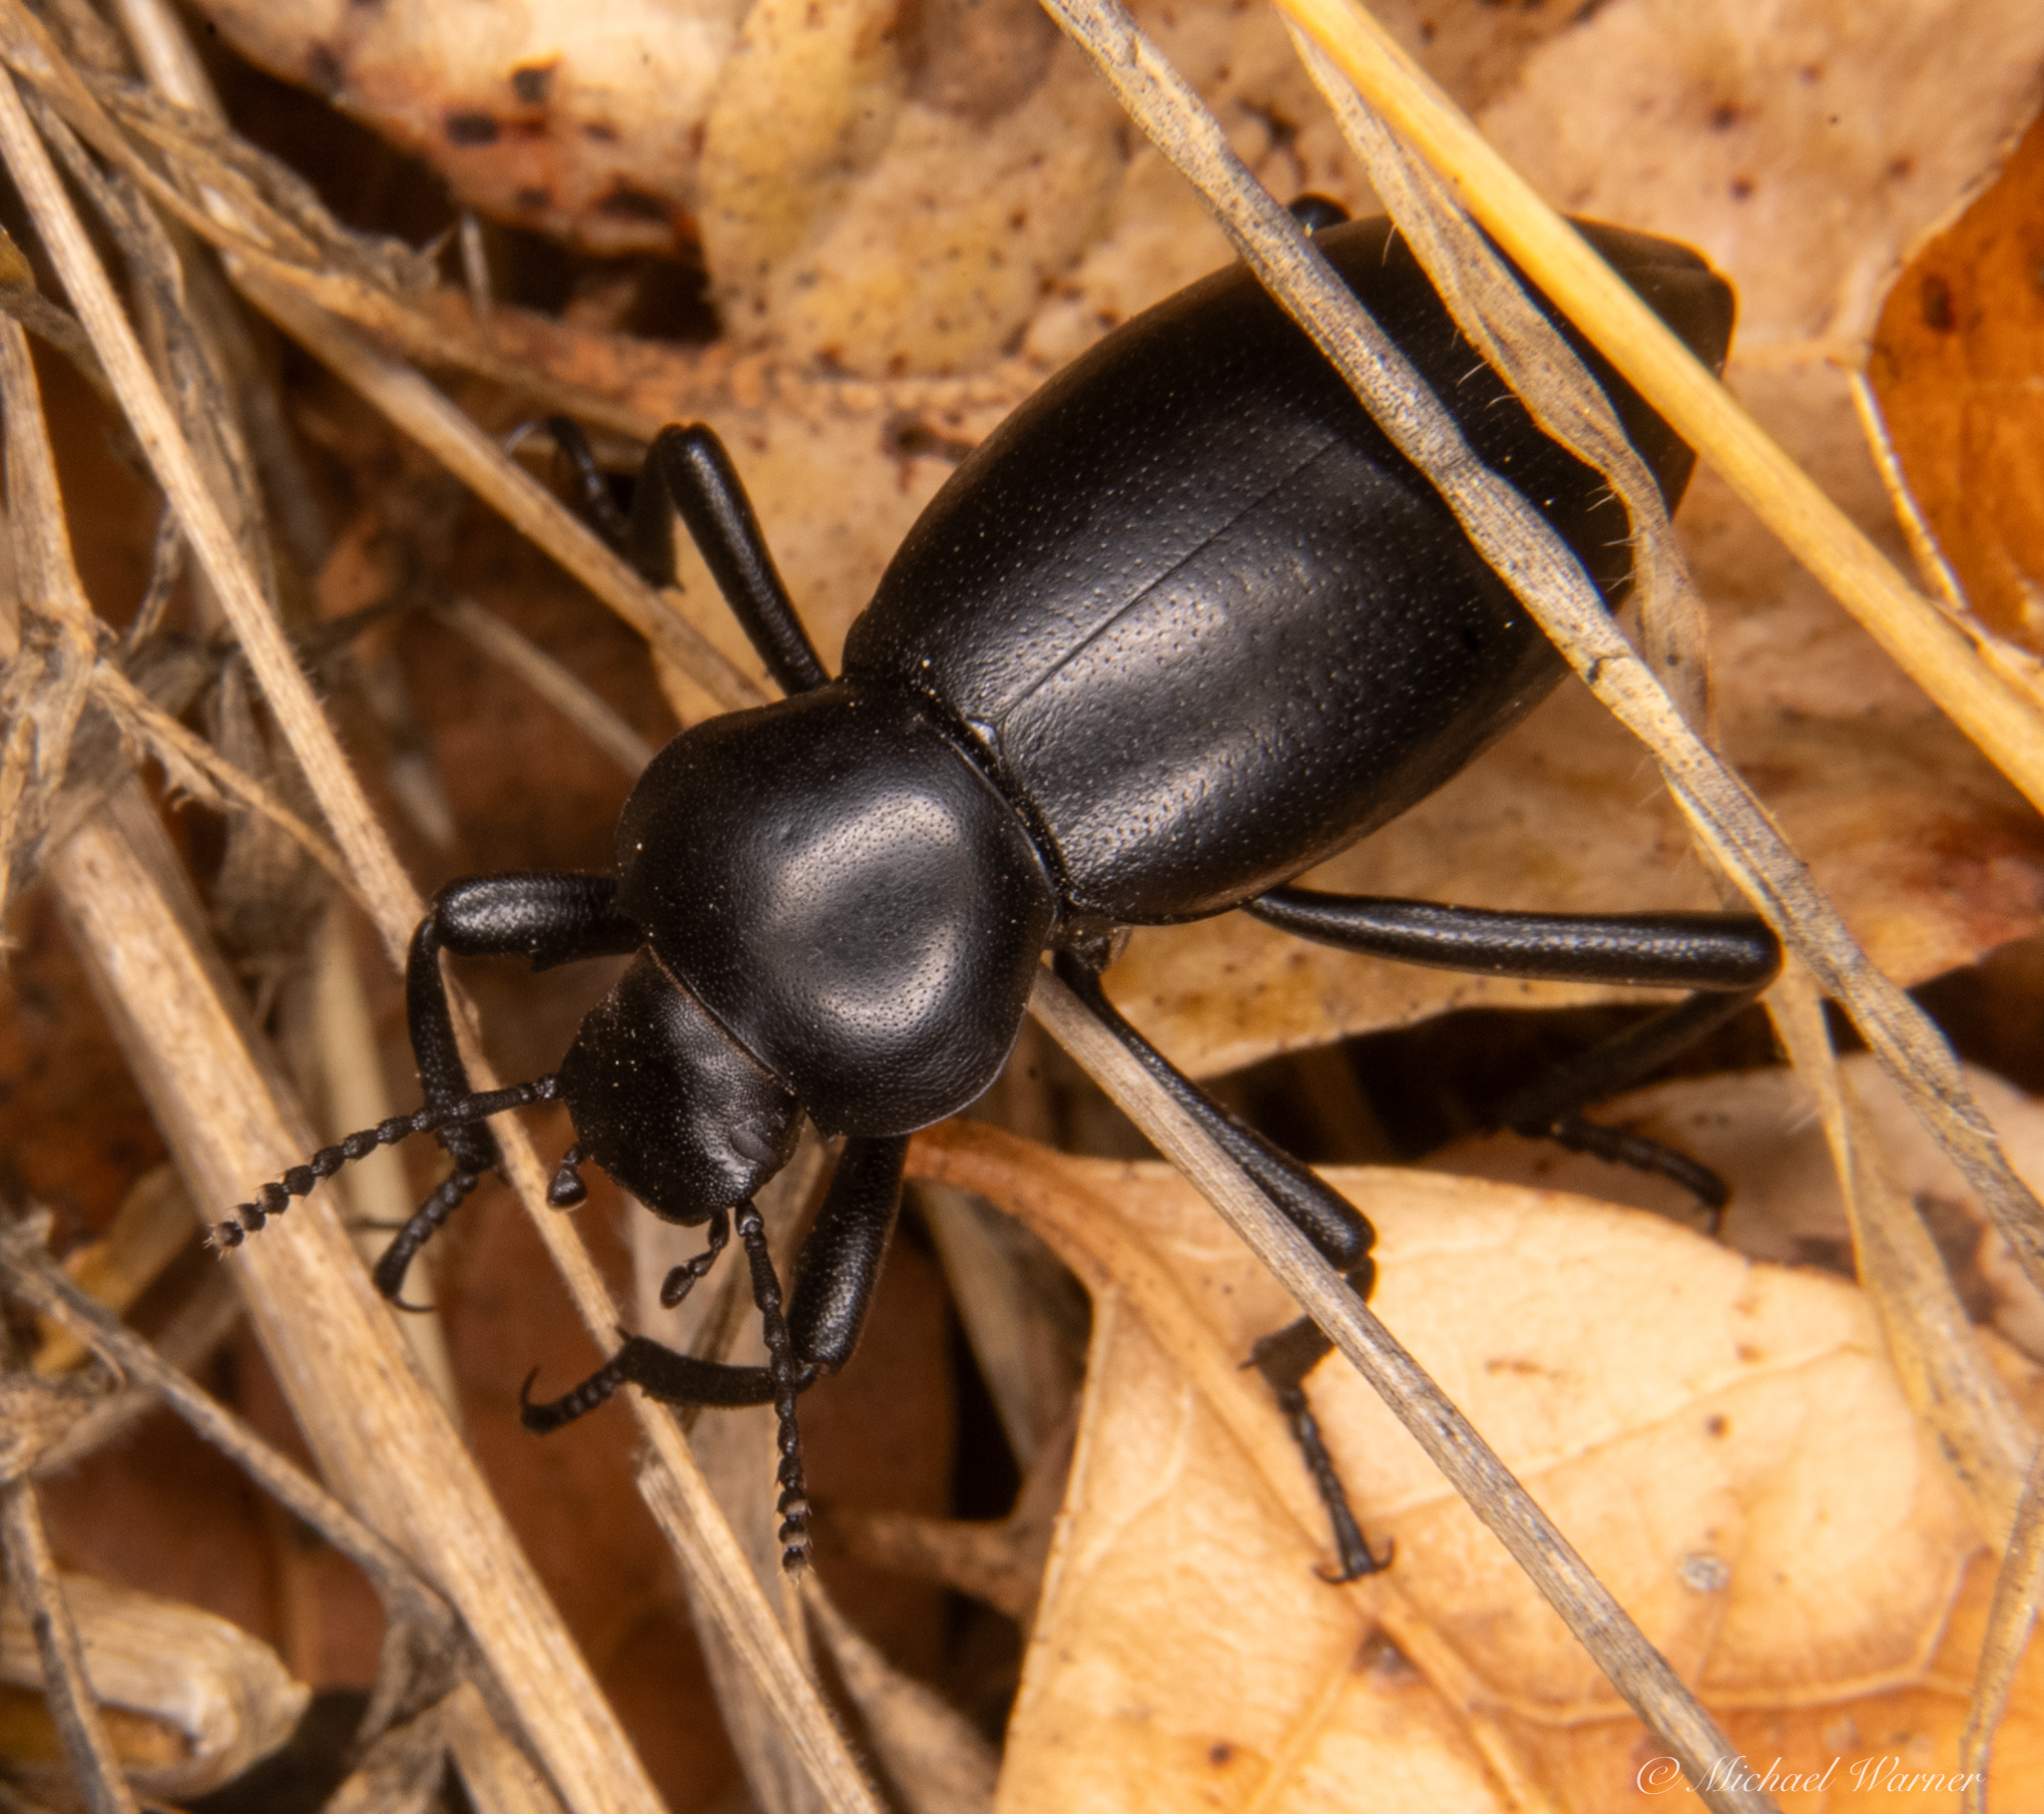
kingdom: Animalia
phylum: Arthropoda
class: Insecta
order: Coleoptera
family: Tenebrionidae
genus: Eleodes
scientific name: Eleodes dentipes
